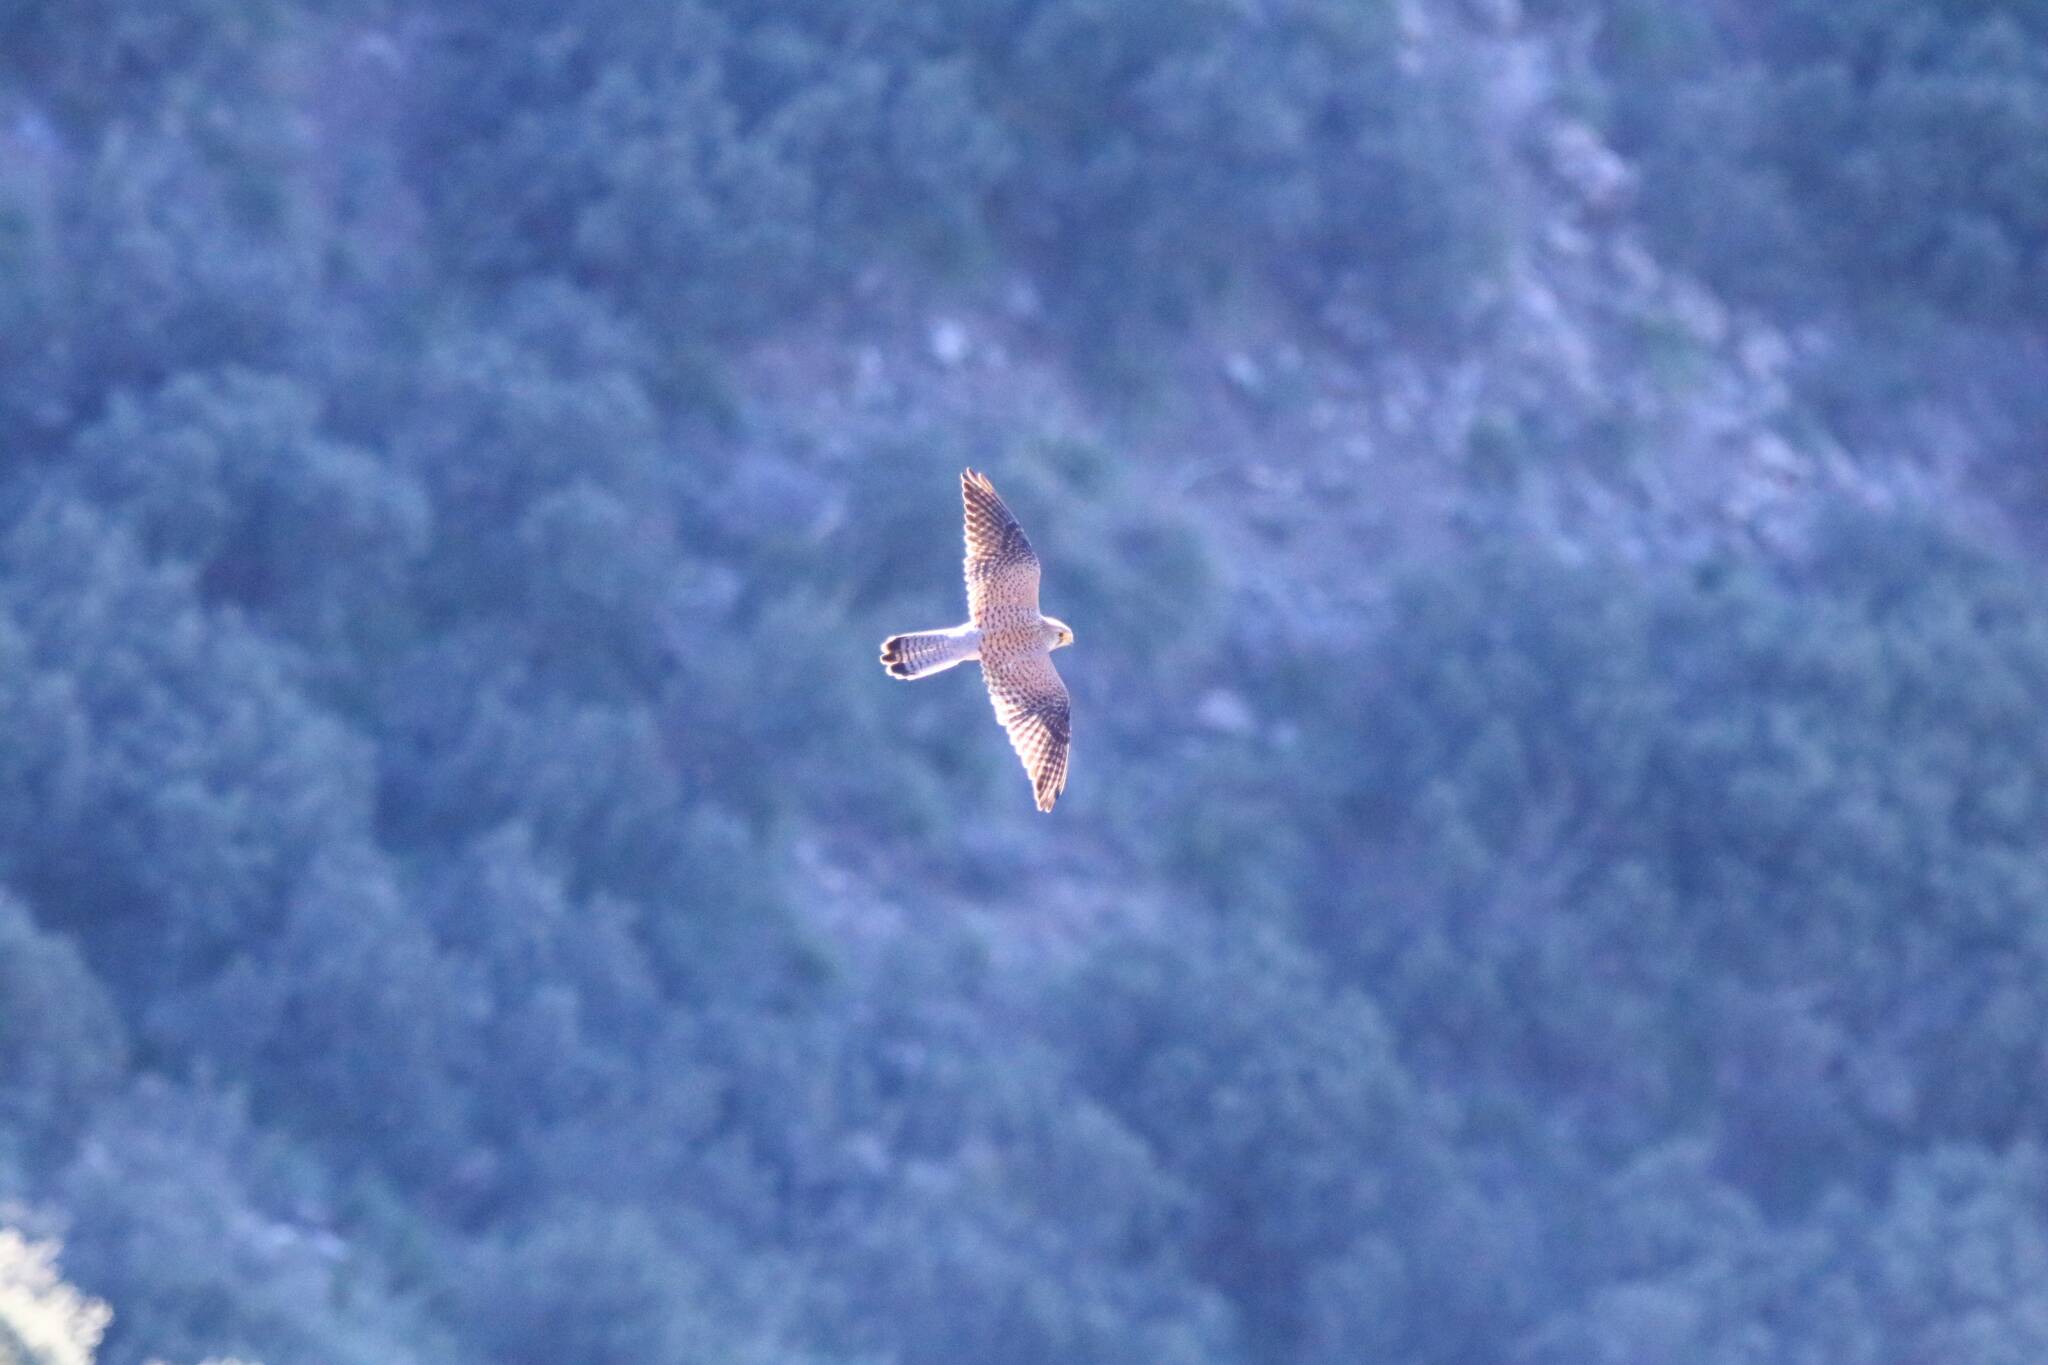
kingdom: Animalia
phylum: Chordata
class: Aves
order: Falconiformes
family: Falconidae
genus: Falco
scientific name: Falco tinnunculus
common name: Common kestrel
